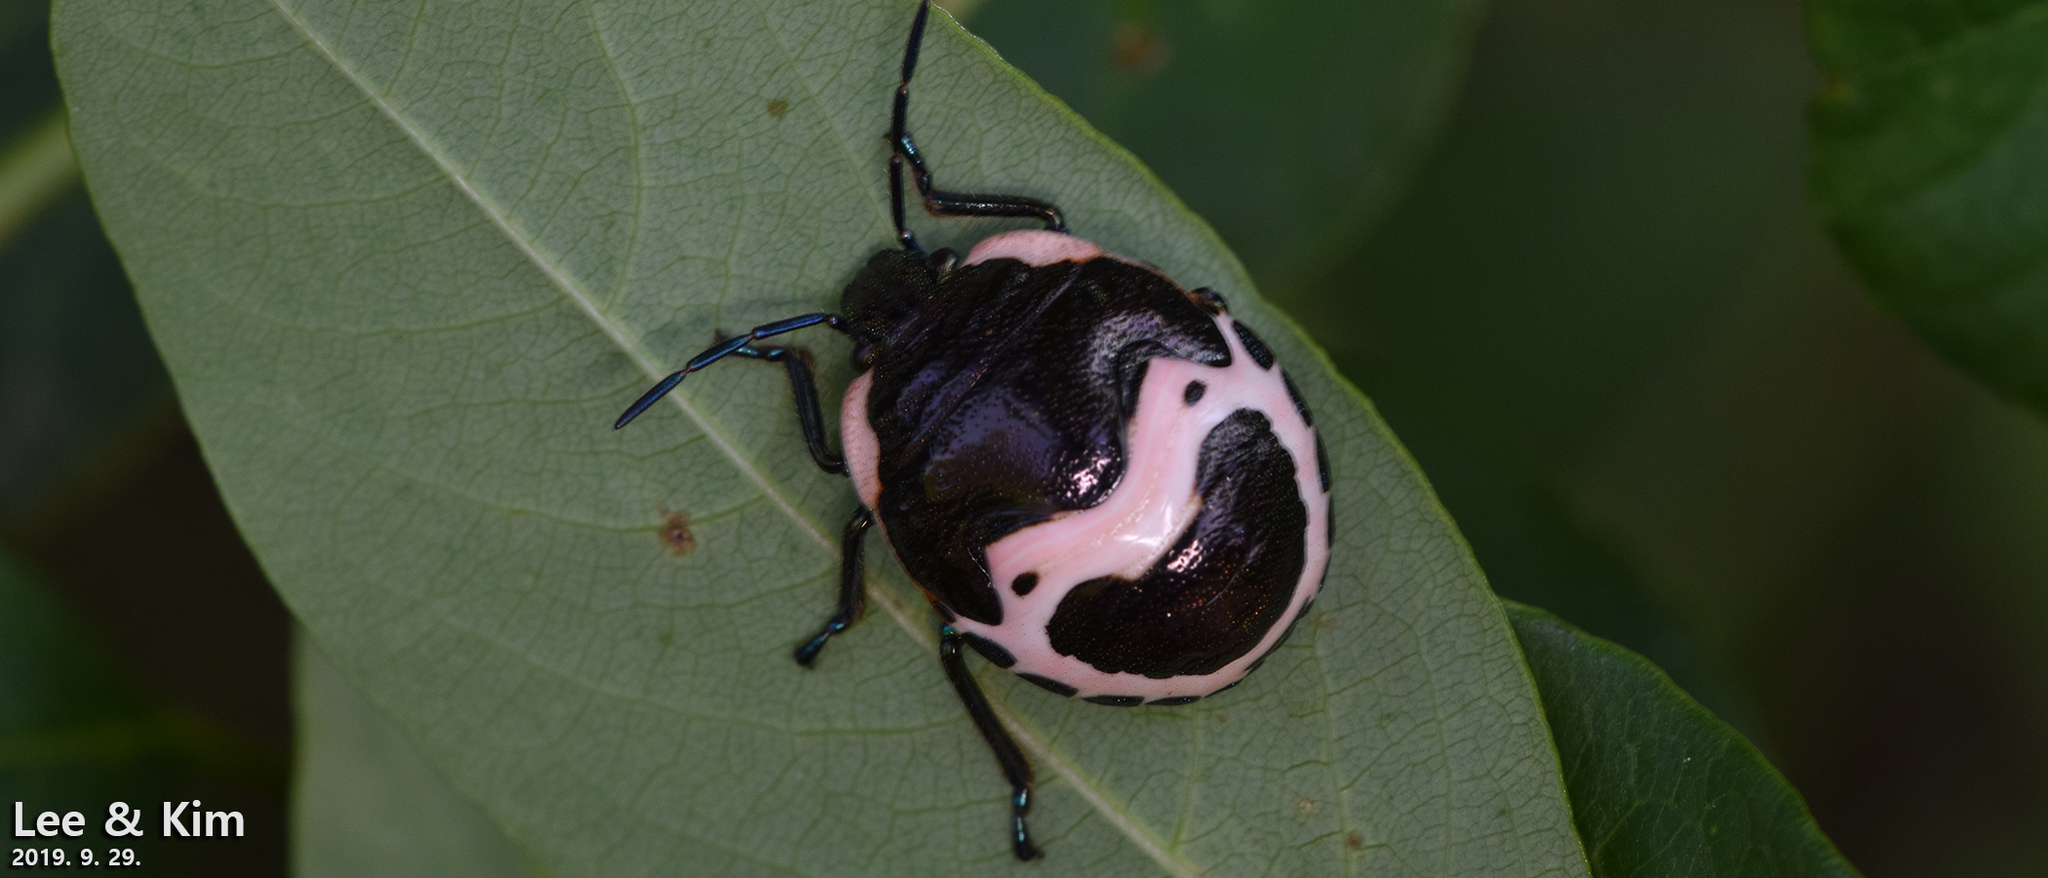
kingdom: Animalia
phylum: Arthropoda
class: Insecta
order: Hemiptera
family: Scutelleridae
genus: Poecilocoris
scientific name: Poecilocoris lewisi
